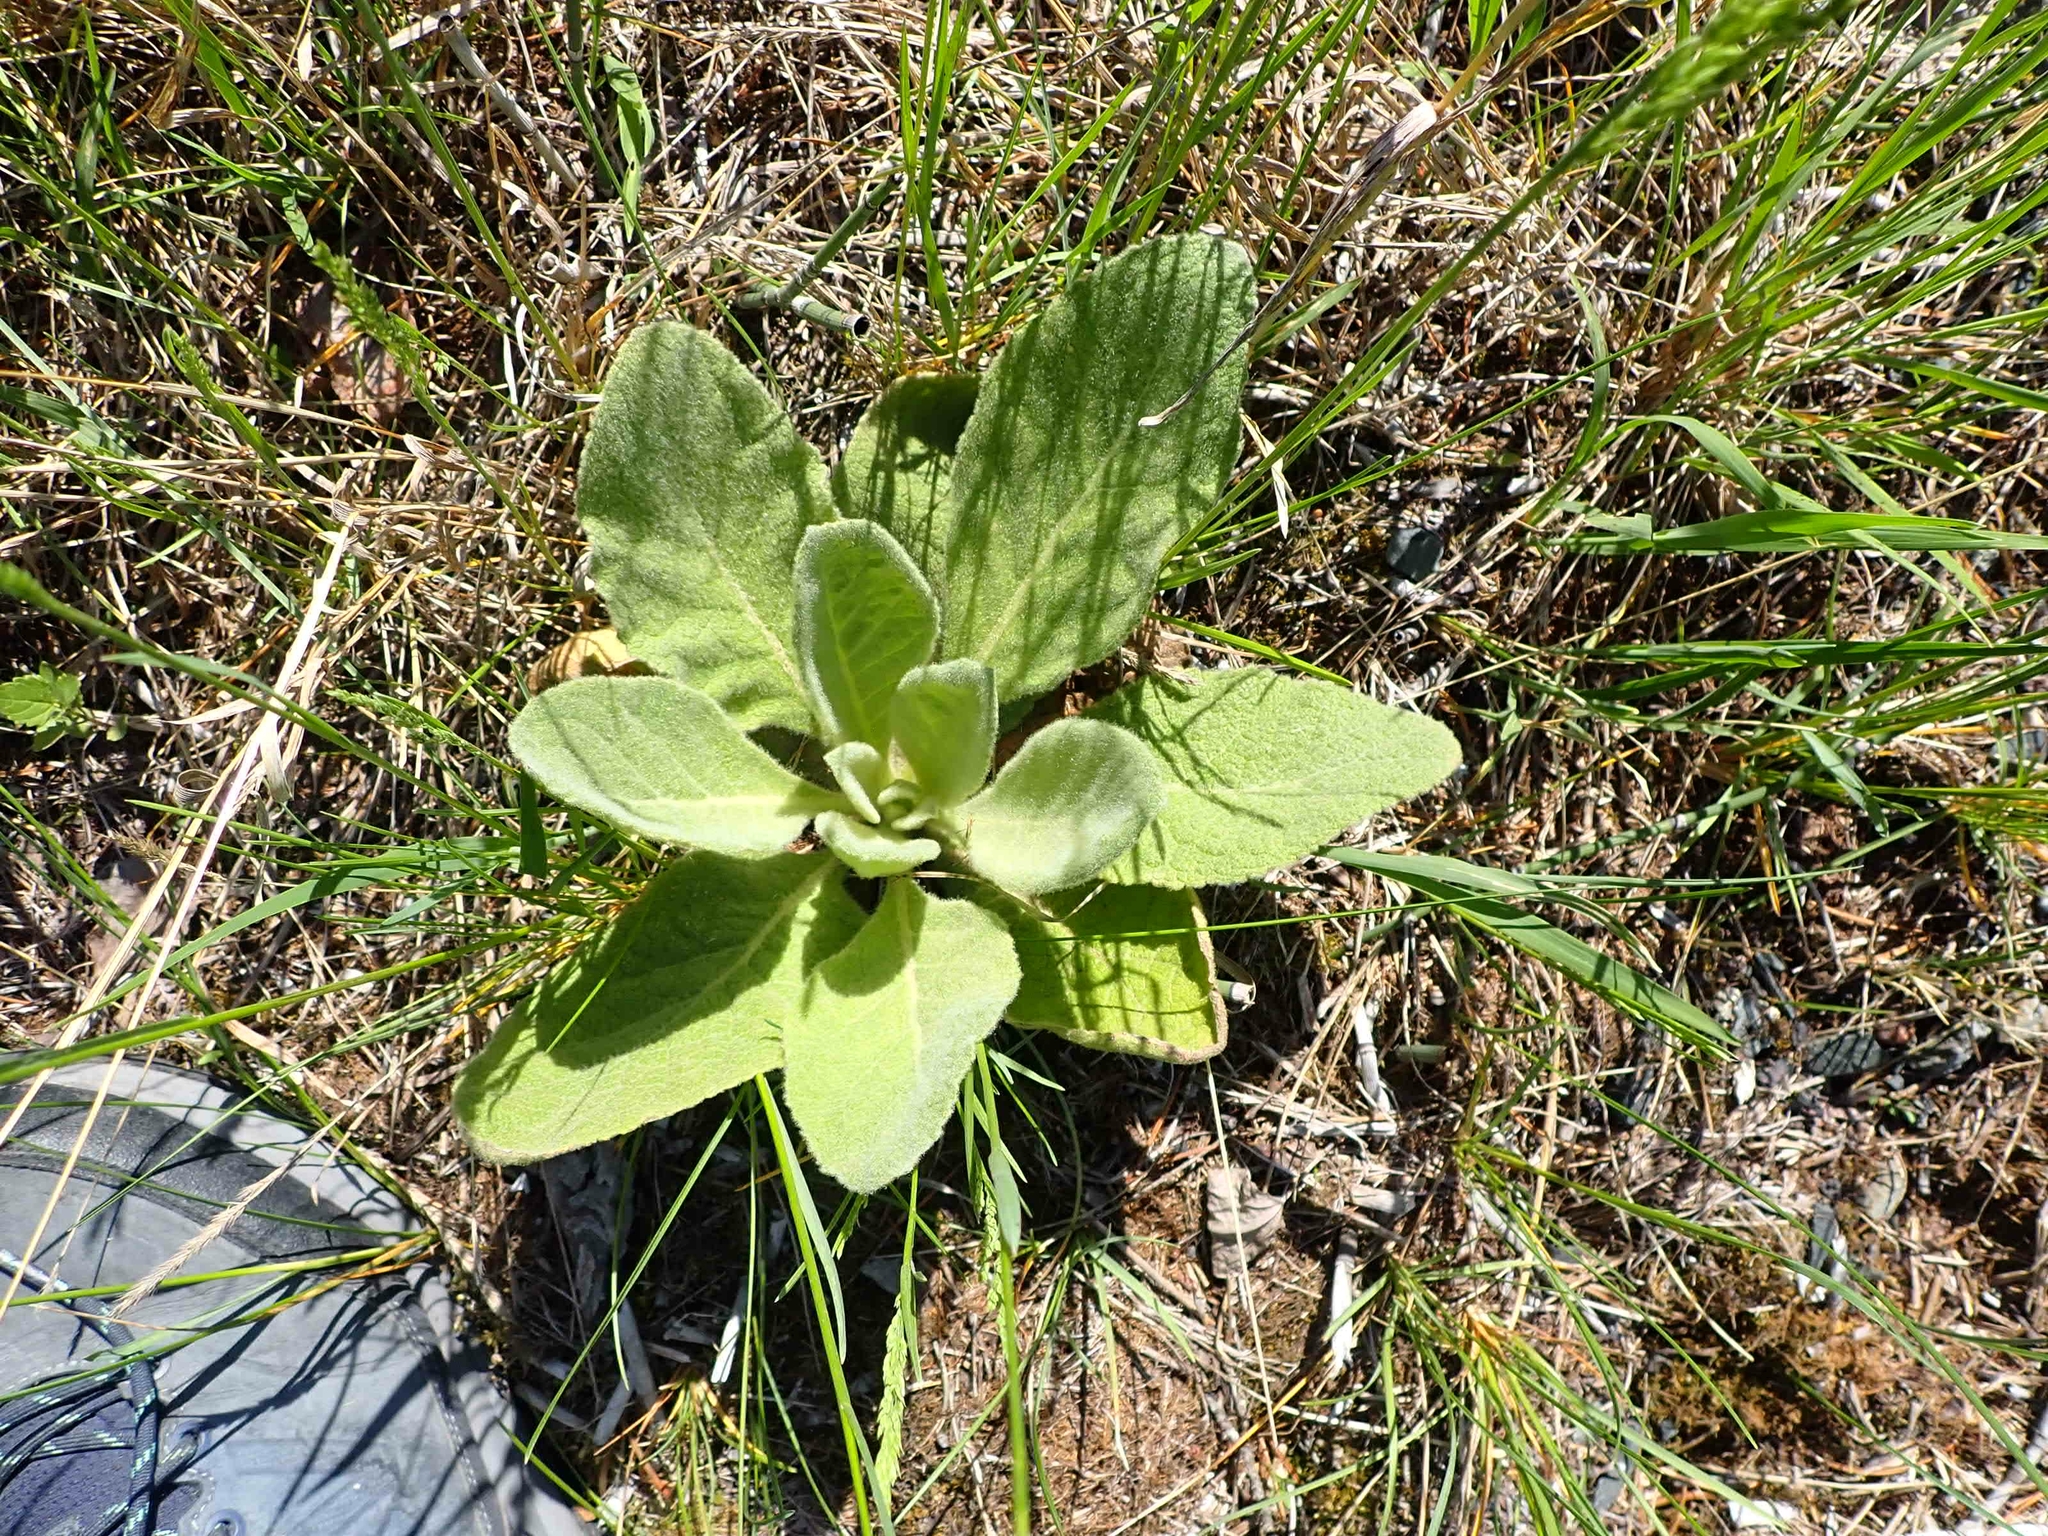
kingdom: Plantae
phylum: Tracheophyta
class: Magnoliopsida
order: Lamiales
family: Scrophulariaceae
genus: Verbascum
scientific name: Verbascum thapsus
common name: Common mullein
